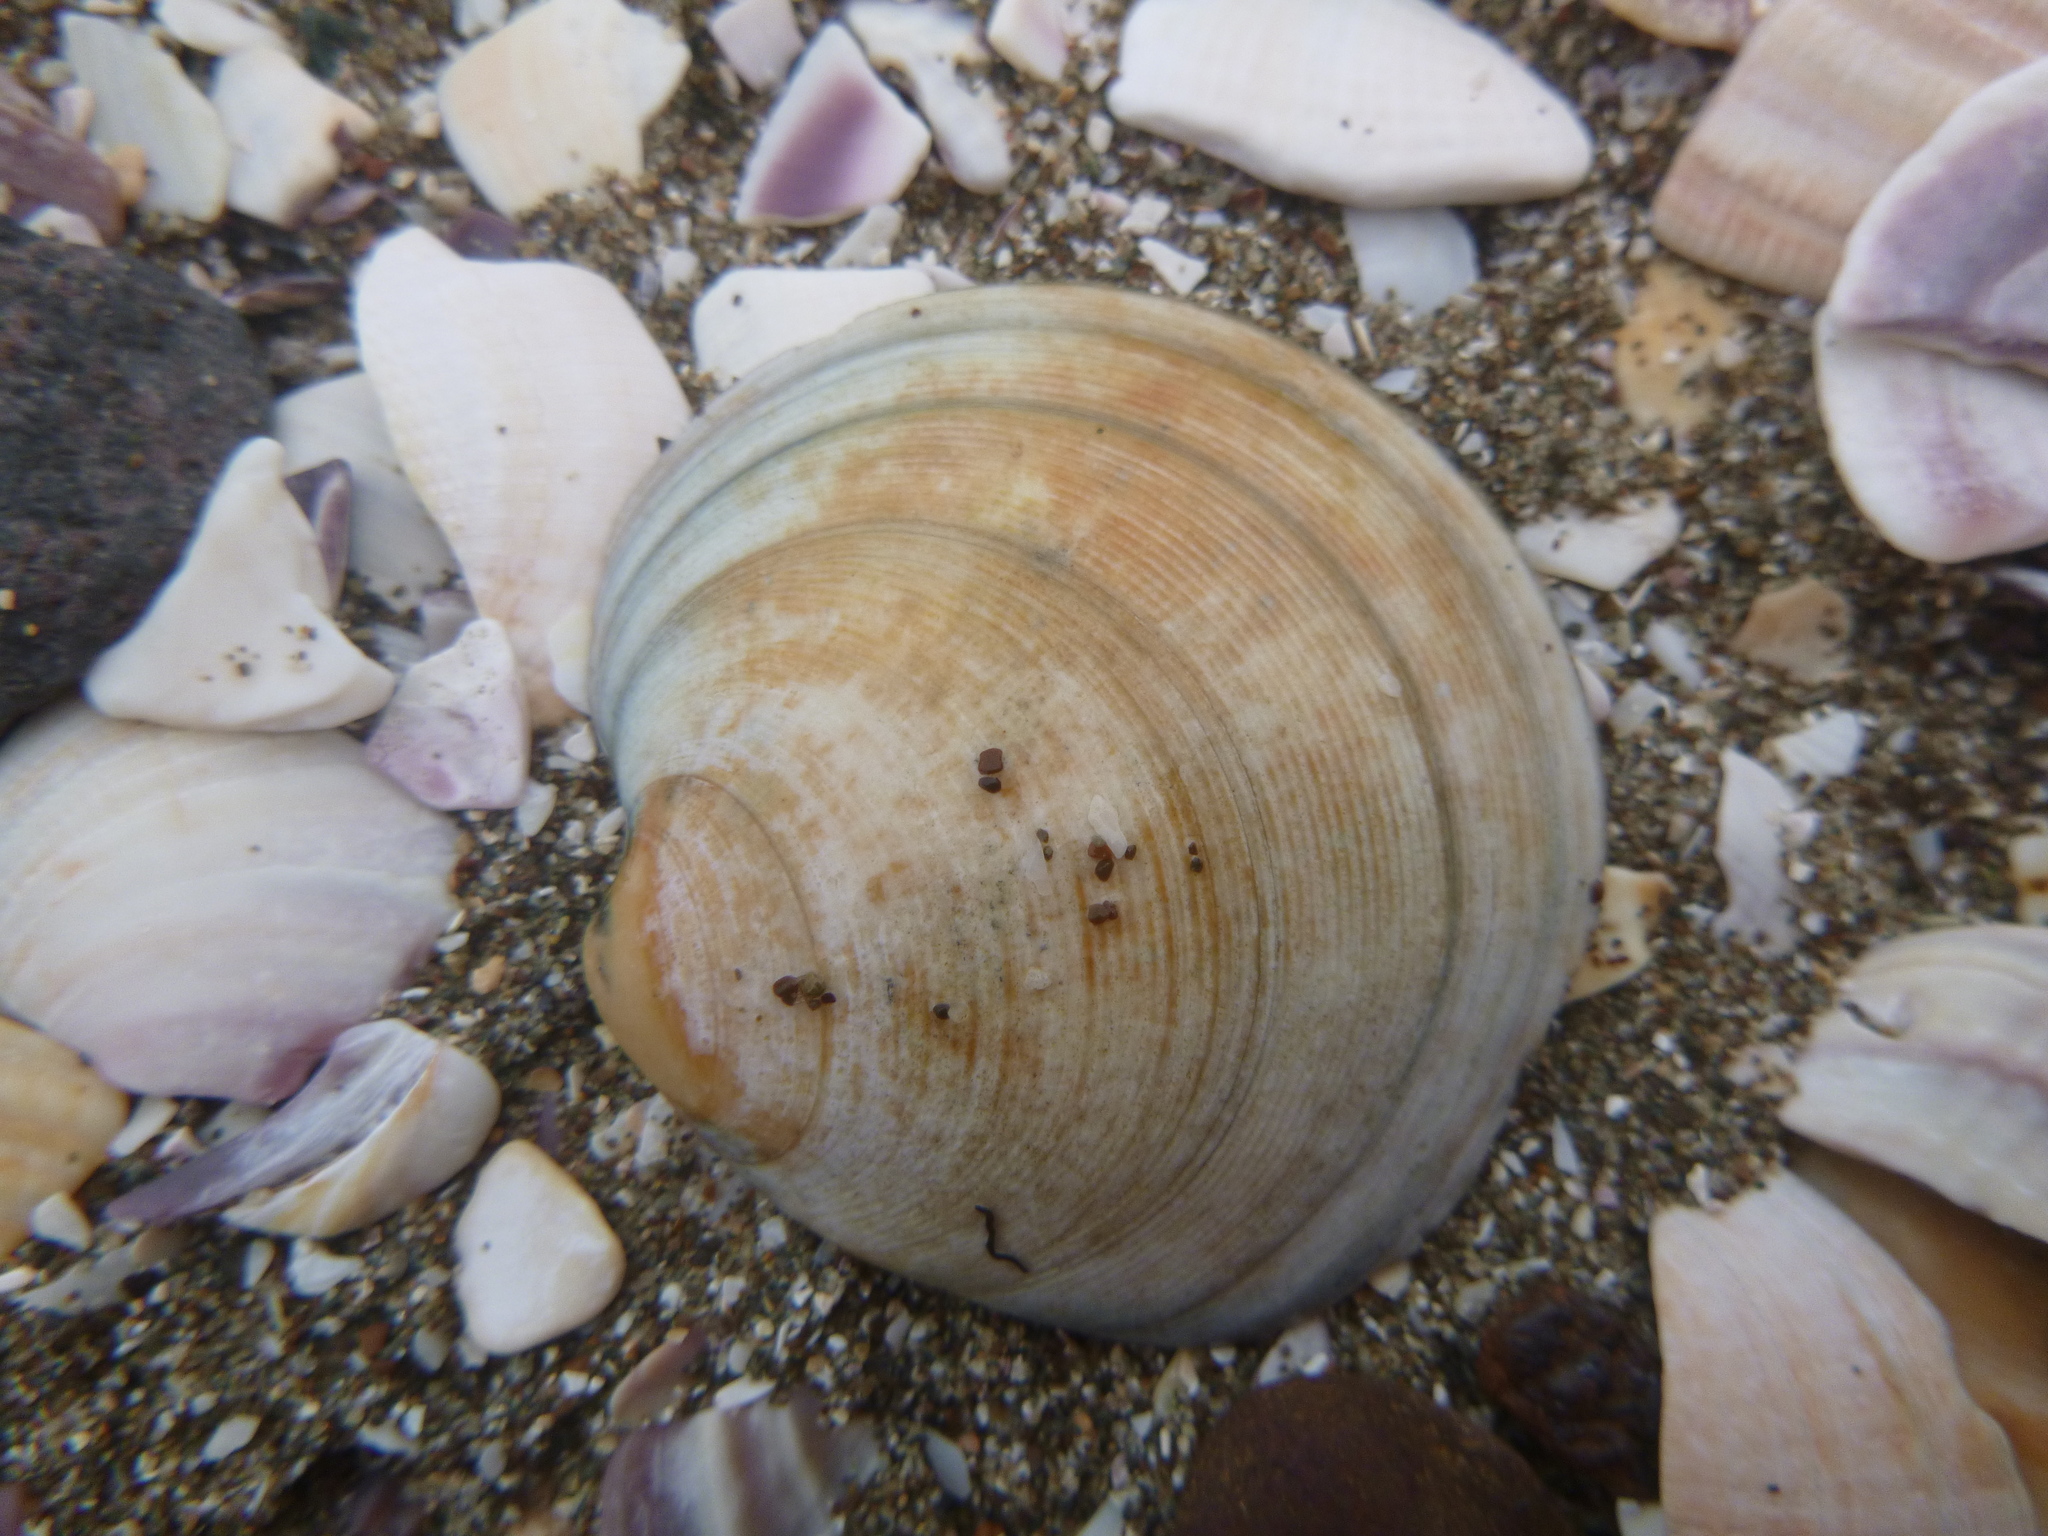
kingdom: Animalia
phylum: Mollusca
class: Bivalvia
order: Venerida
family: Veneridae
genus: Dosinia
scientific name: Dosinia subrosea
